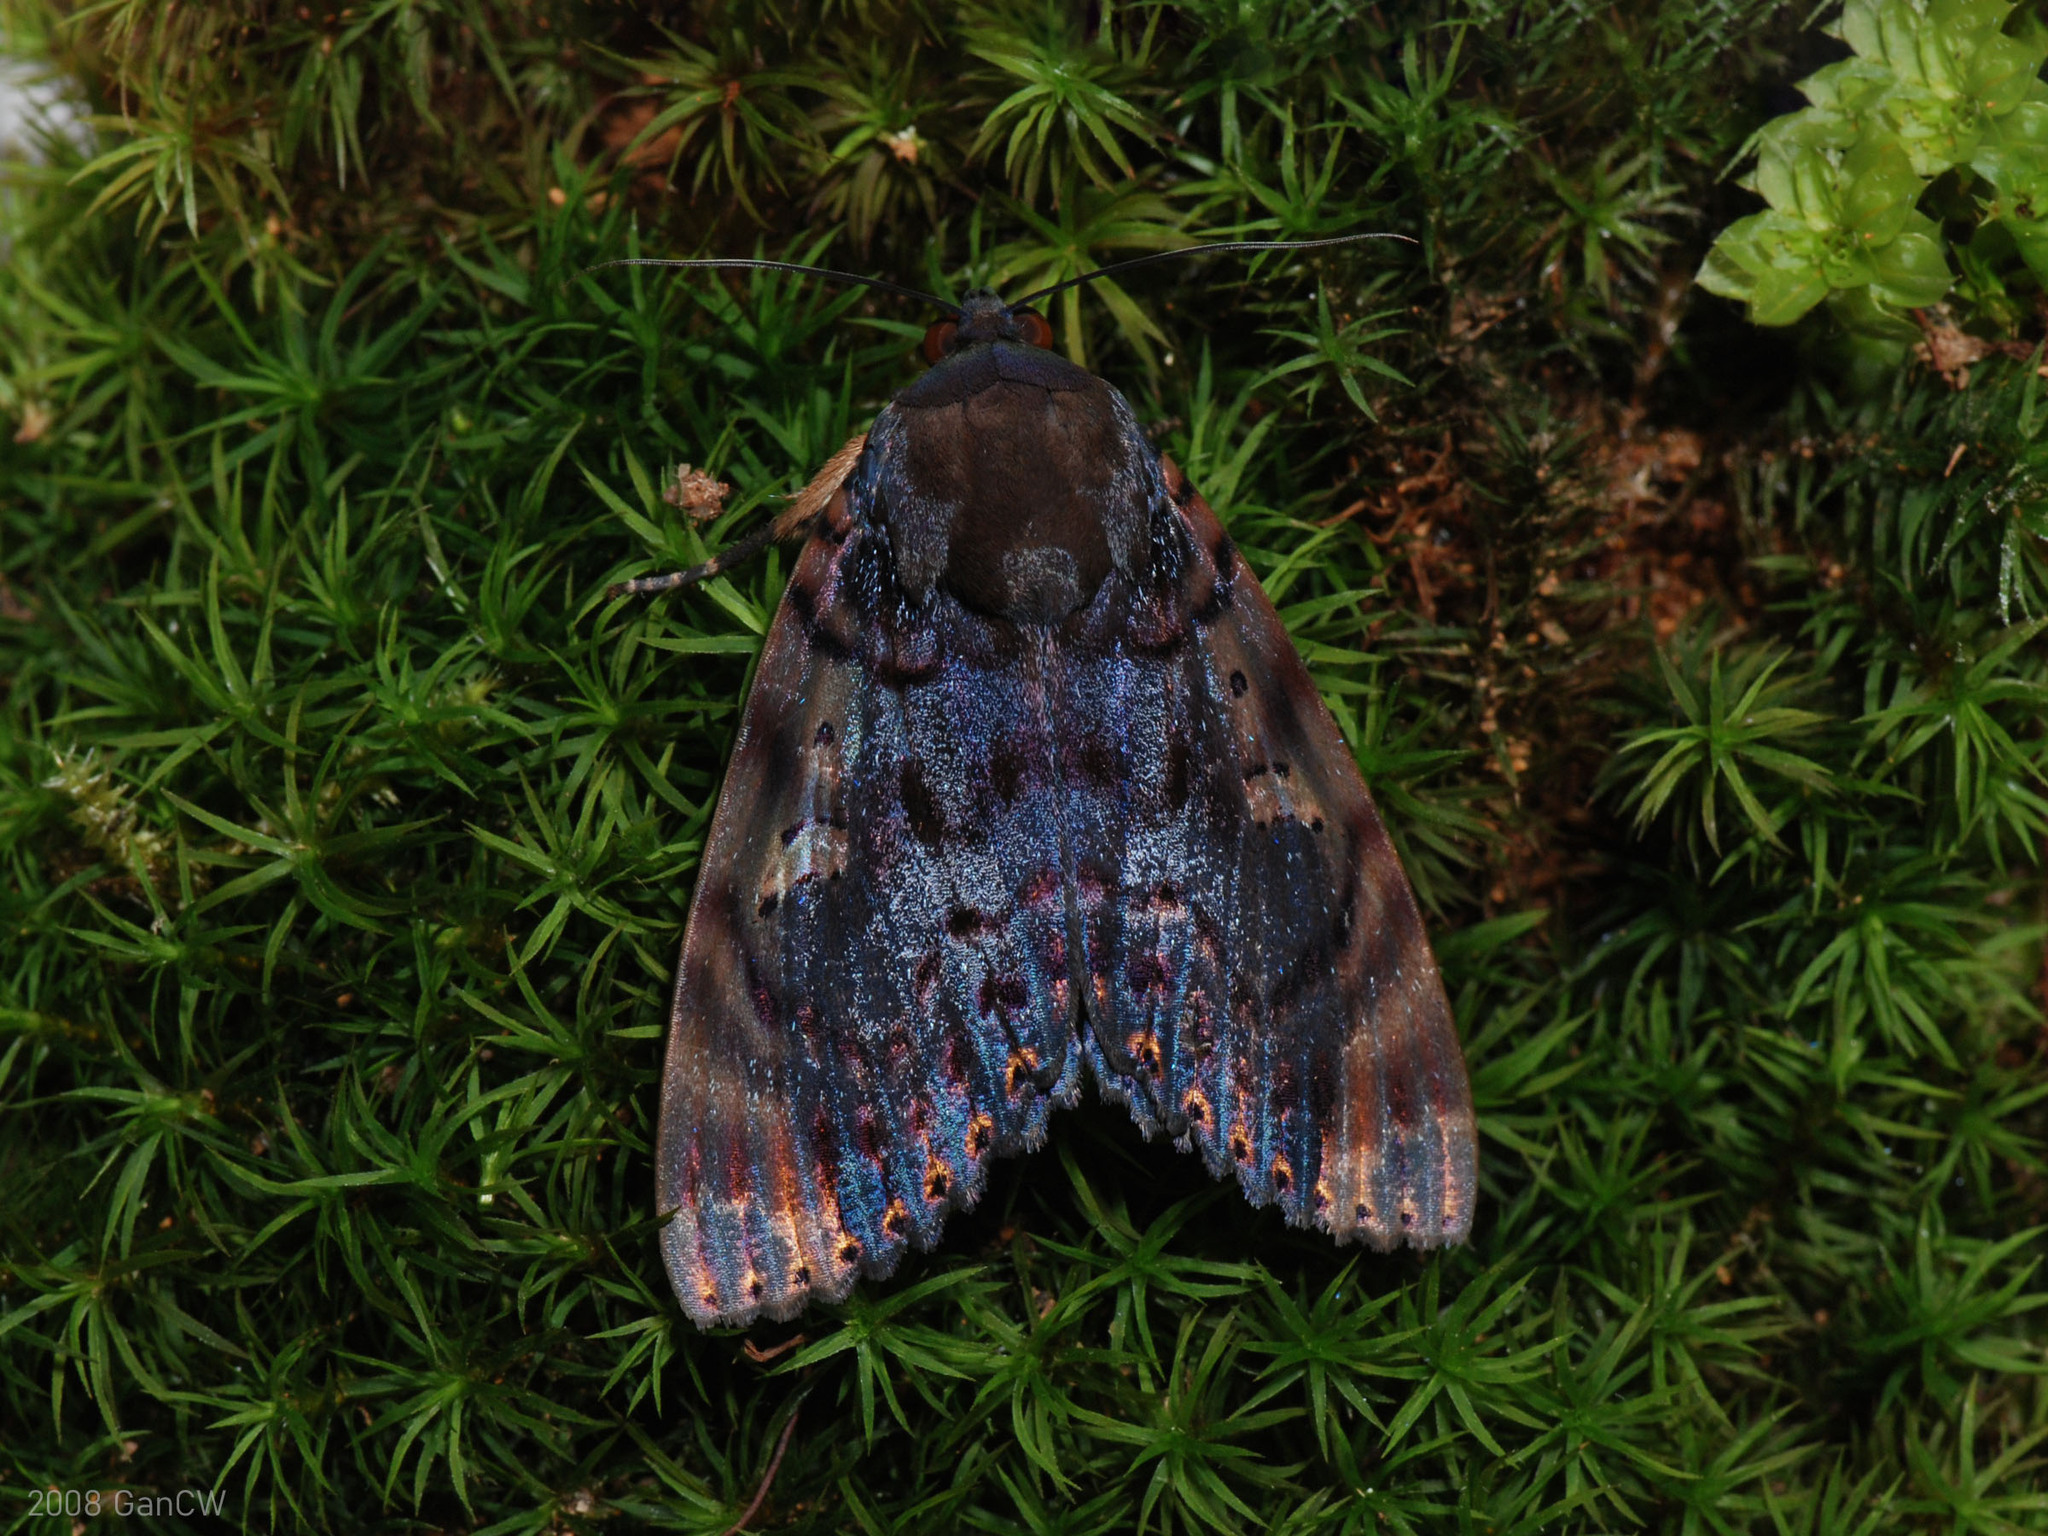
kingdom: Animalia
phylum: Arthropoda
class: Insecta
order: Lepidoptera
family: Erebidae
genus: Arcte
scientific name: Arcte coerula
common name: Ramie moth
